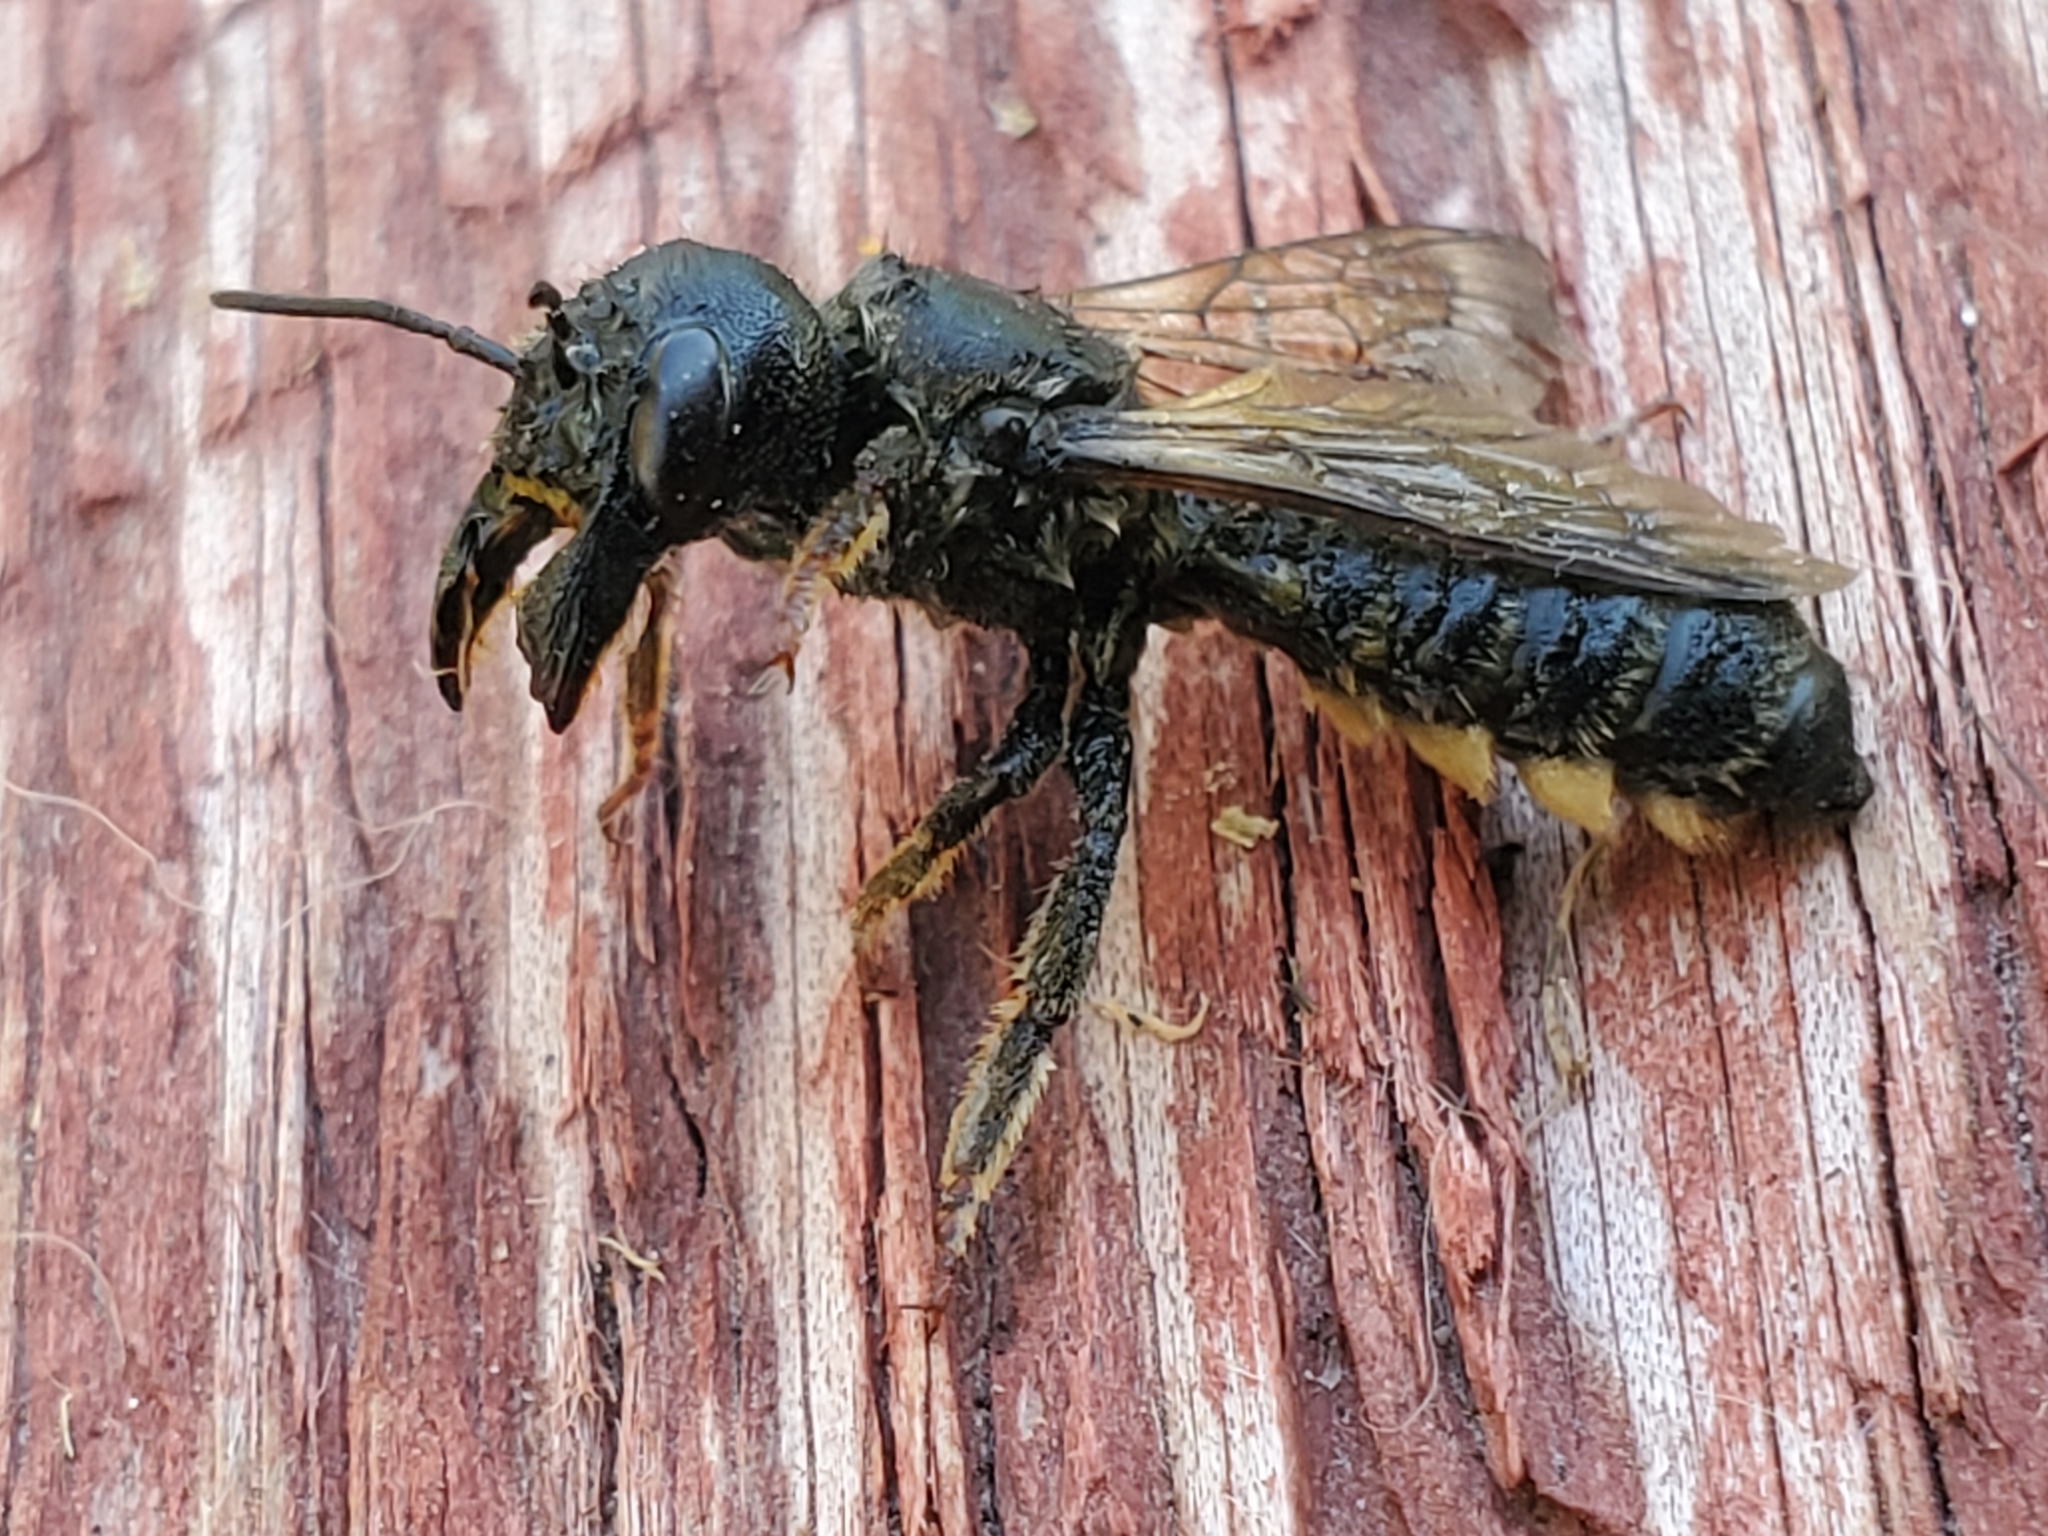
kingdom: Animalia
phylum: Arthropoda
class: Insecta
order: Hymenoptera
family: Megachilidae
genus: Megachile
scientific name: Megachile pugnata
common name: Pugnacious leafcutter bee
